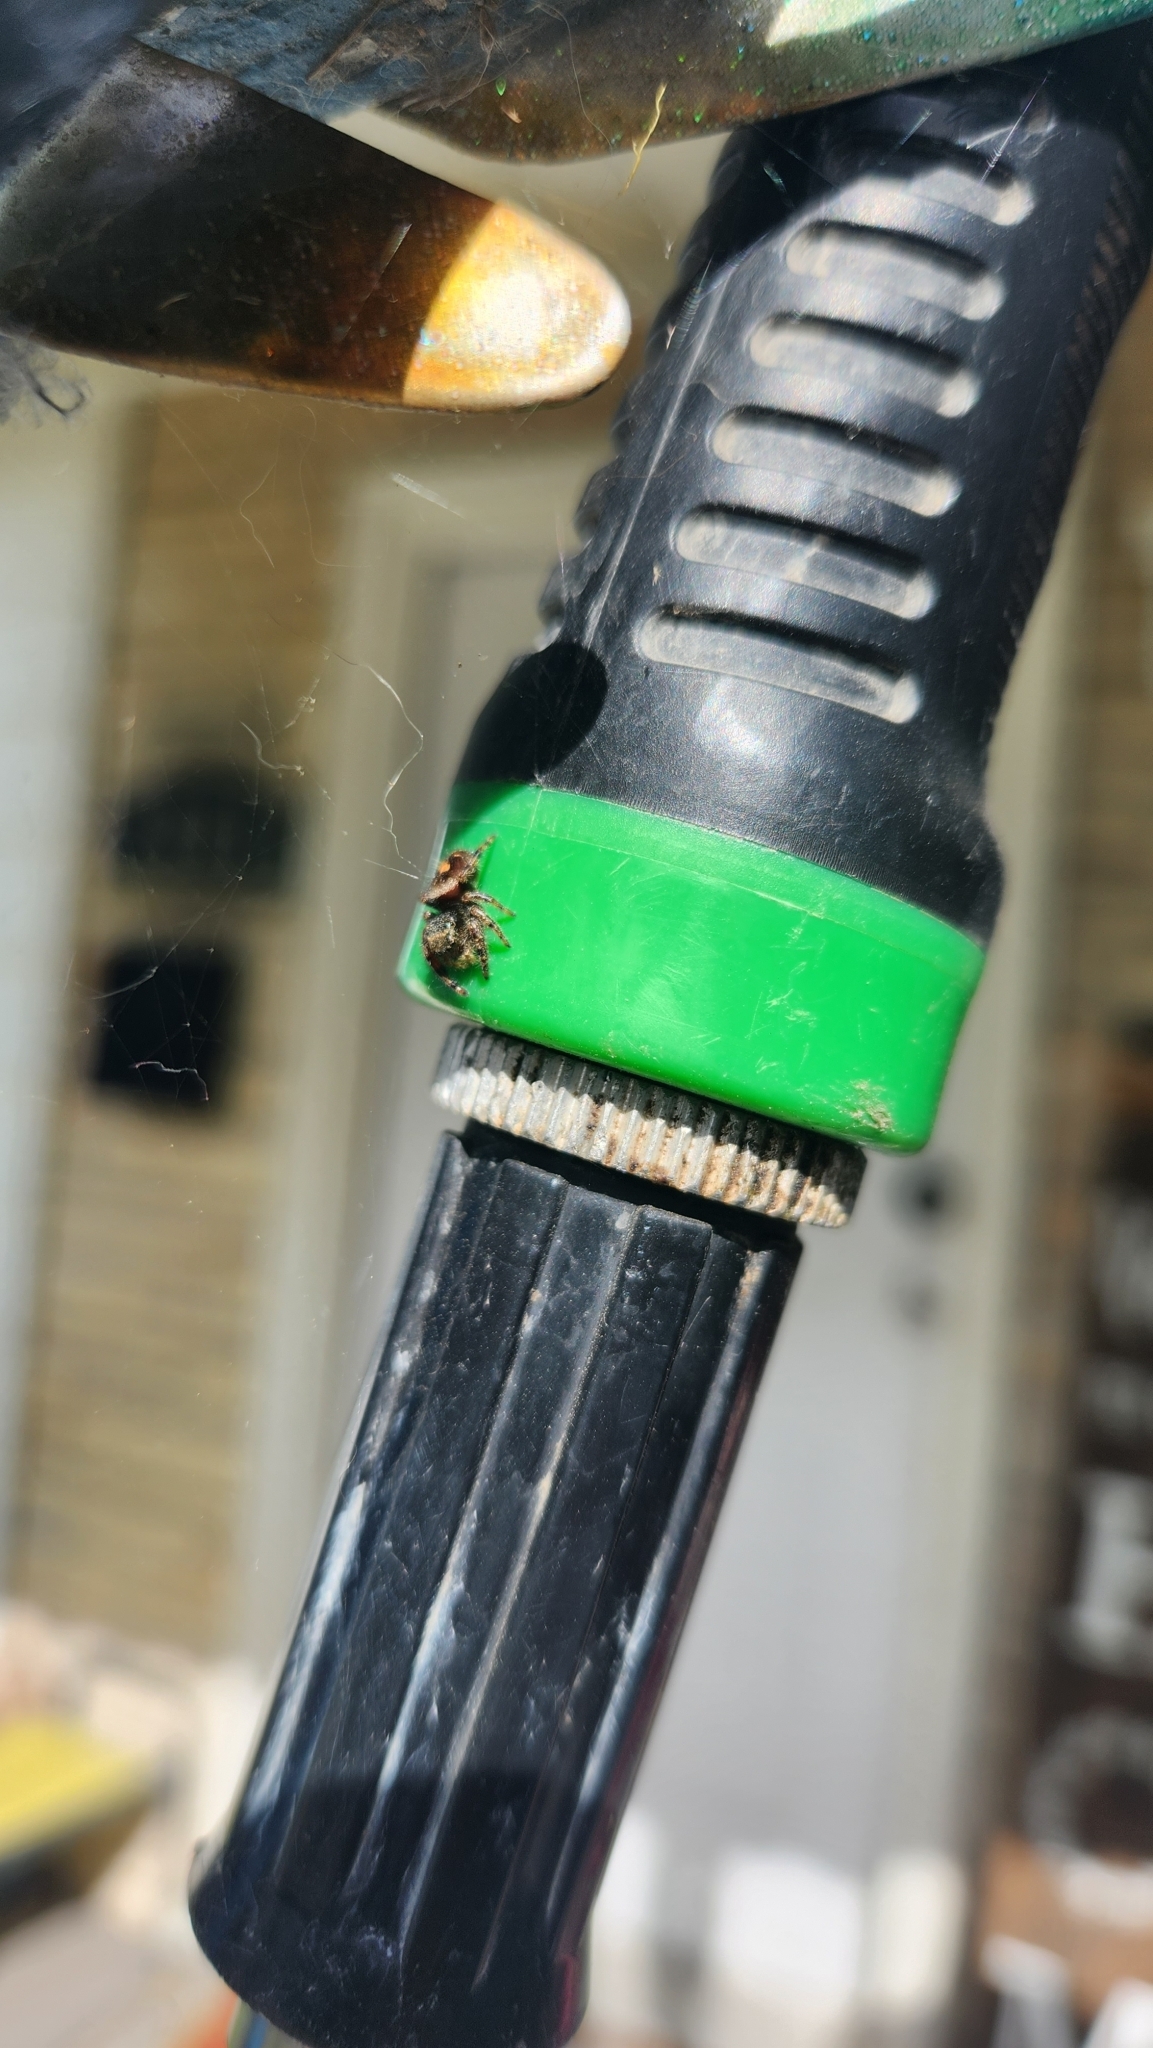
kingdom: Animalia
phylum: Arthropoda
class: Arachnida
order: Araneae
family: Salticidae
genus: Phidippus
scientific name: Phidippus audax
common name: Bold jumper
